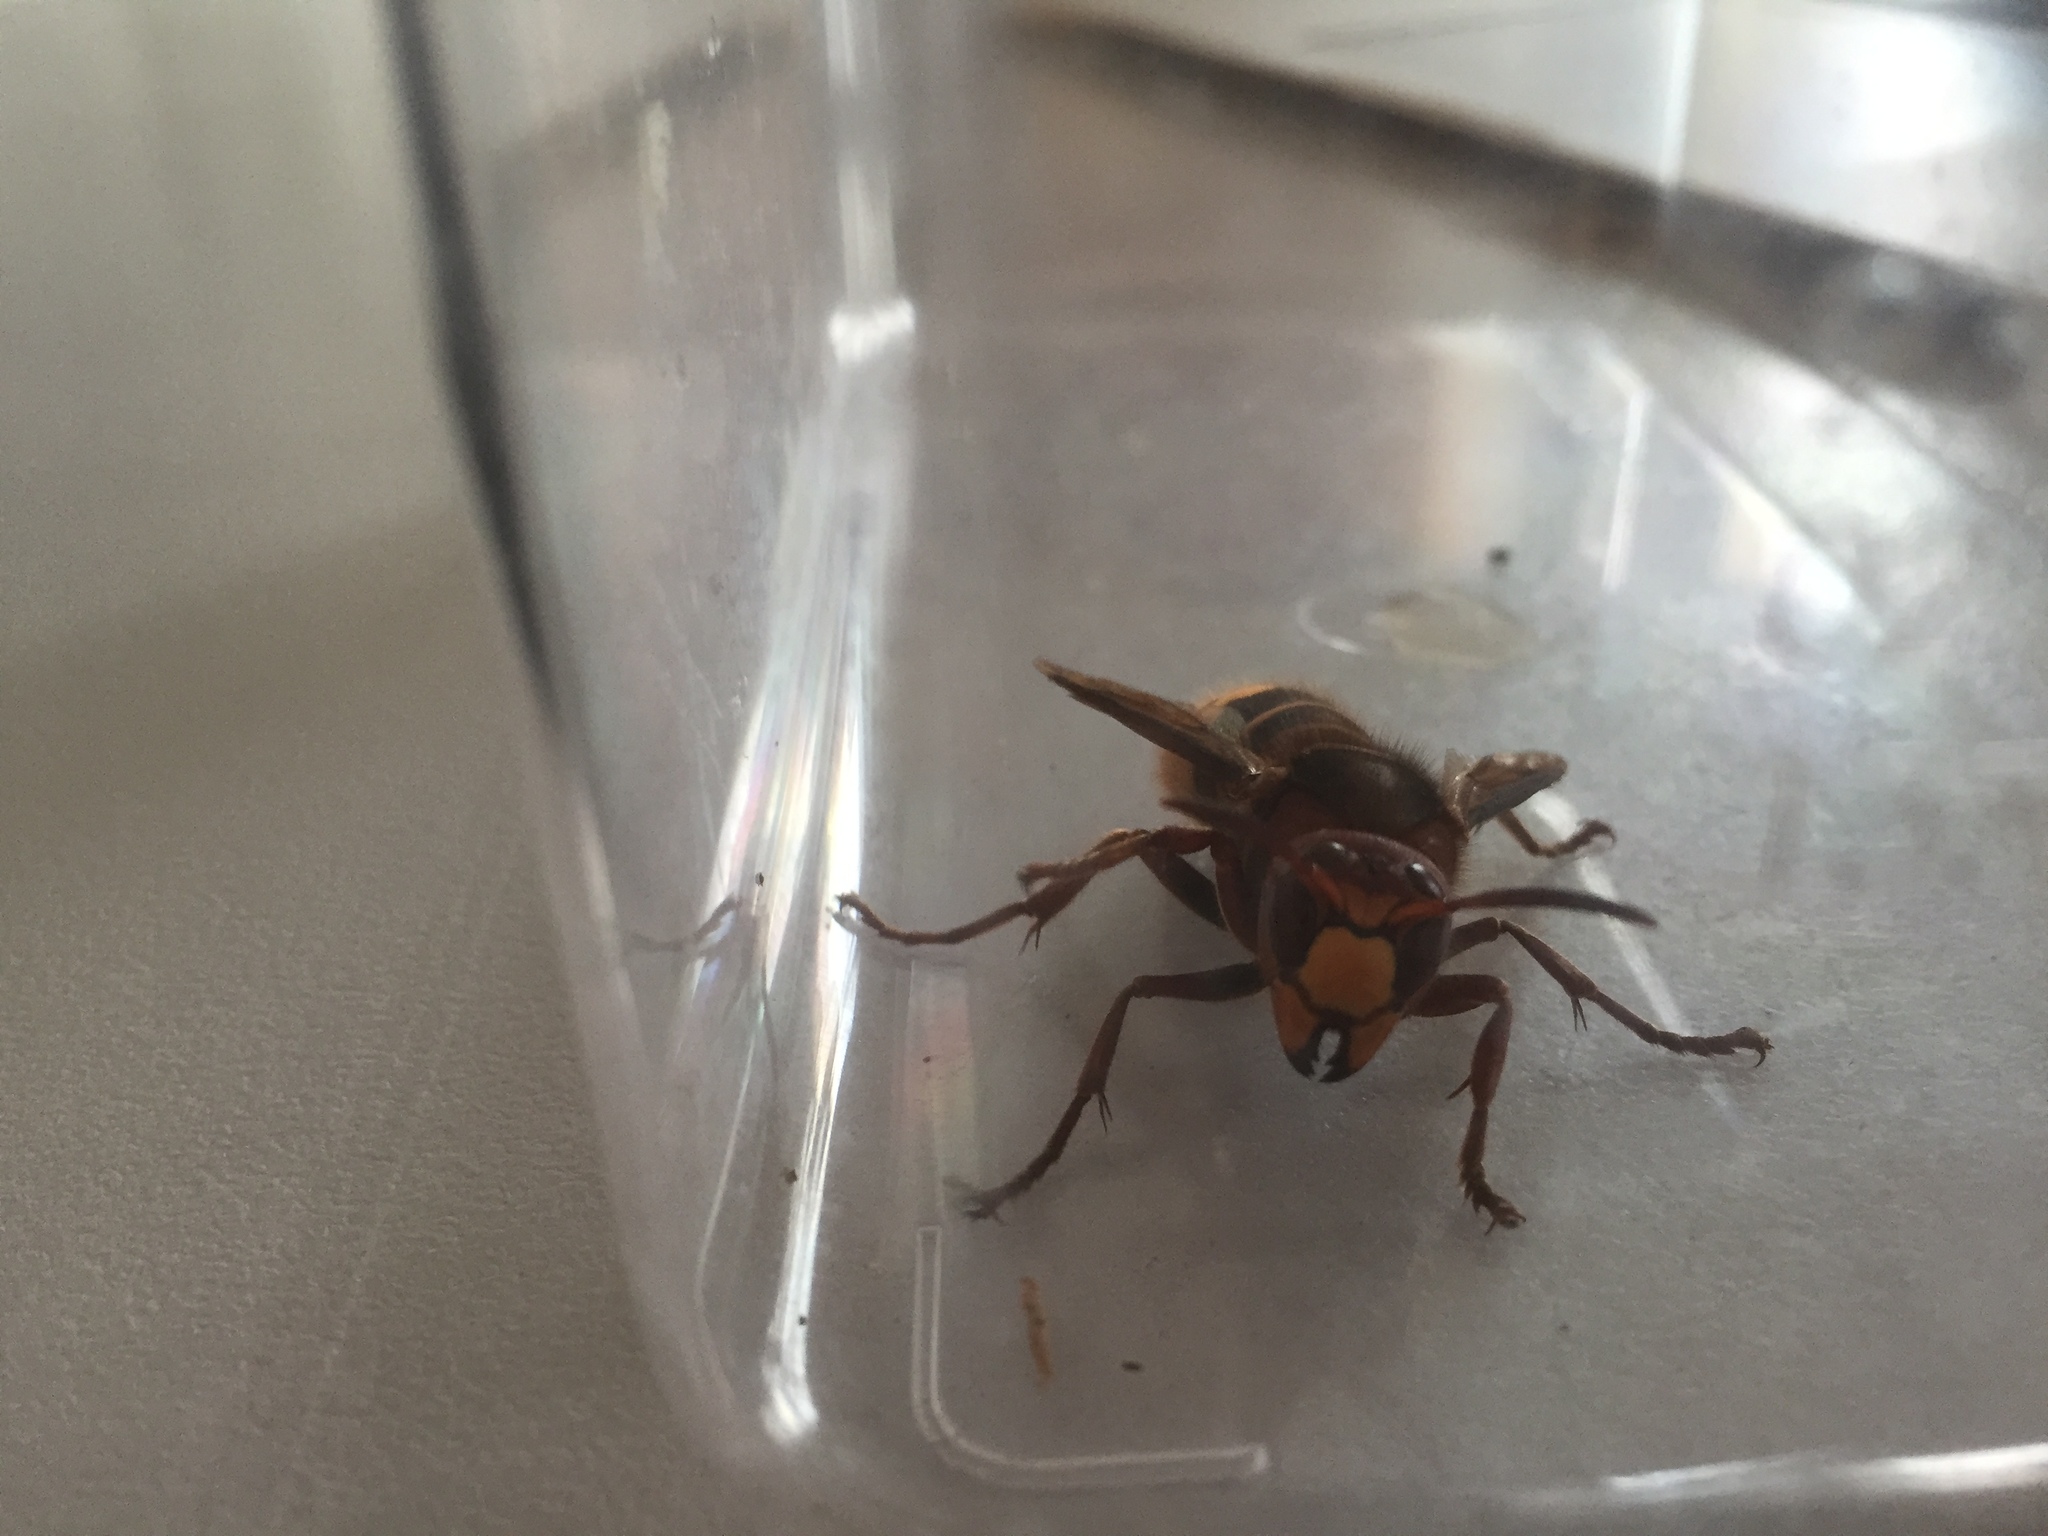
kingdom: Animalia
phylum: Arthropoda
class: Insecta
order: Hymenoptera
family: Vespidae
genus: Vespa
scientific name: Vespa crabro
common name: Hornet
